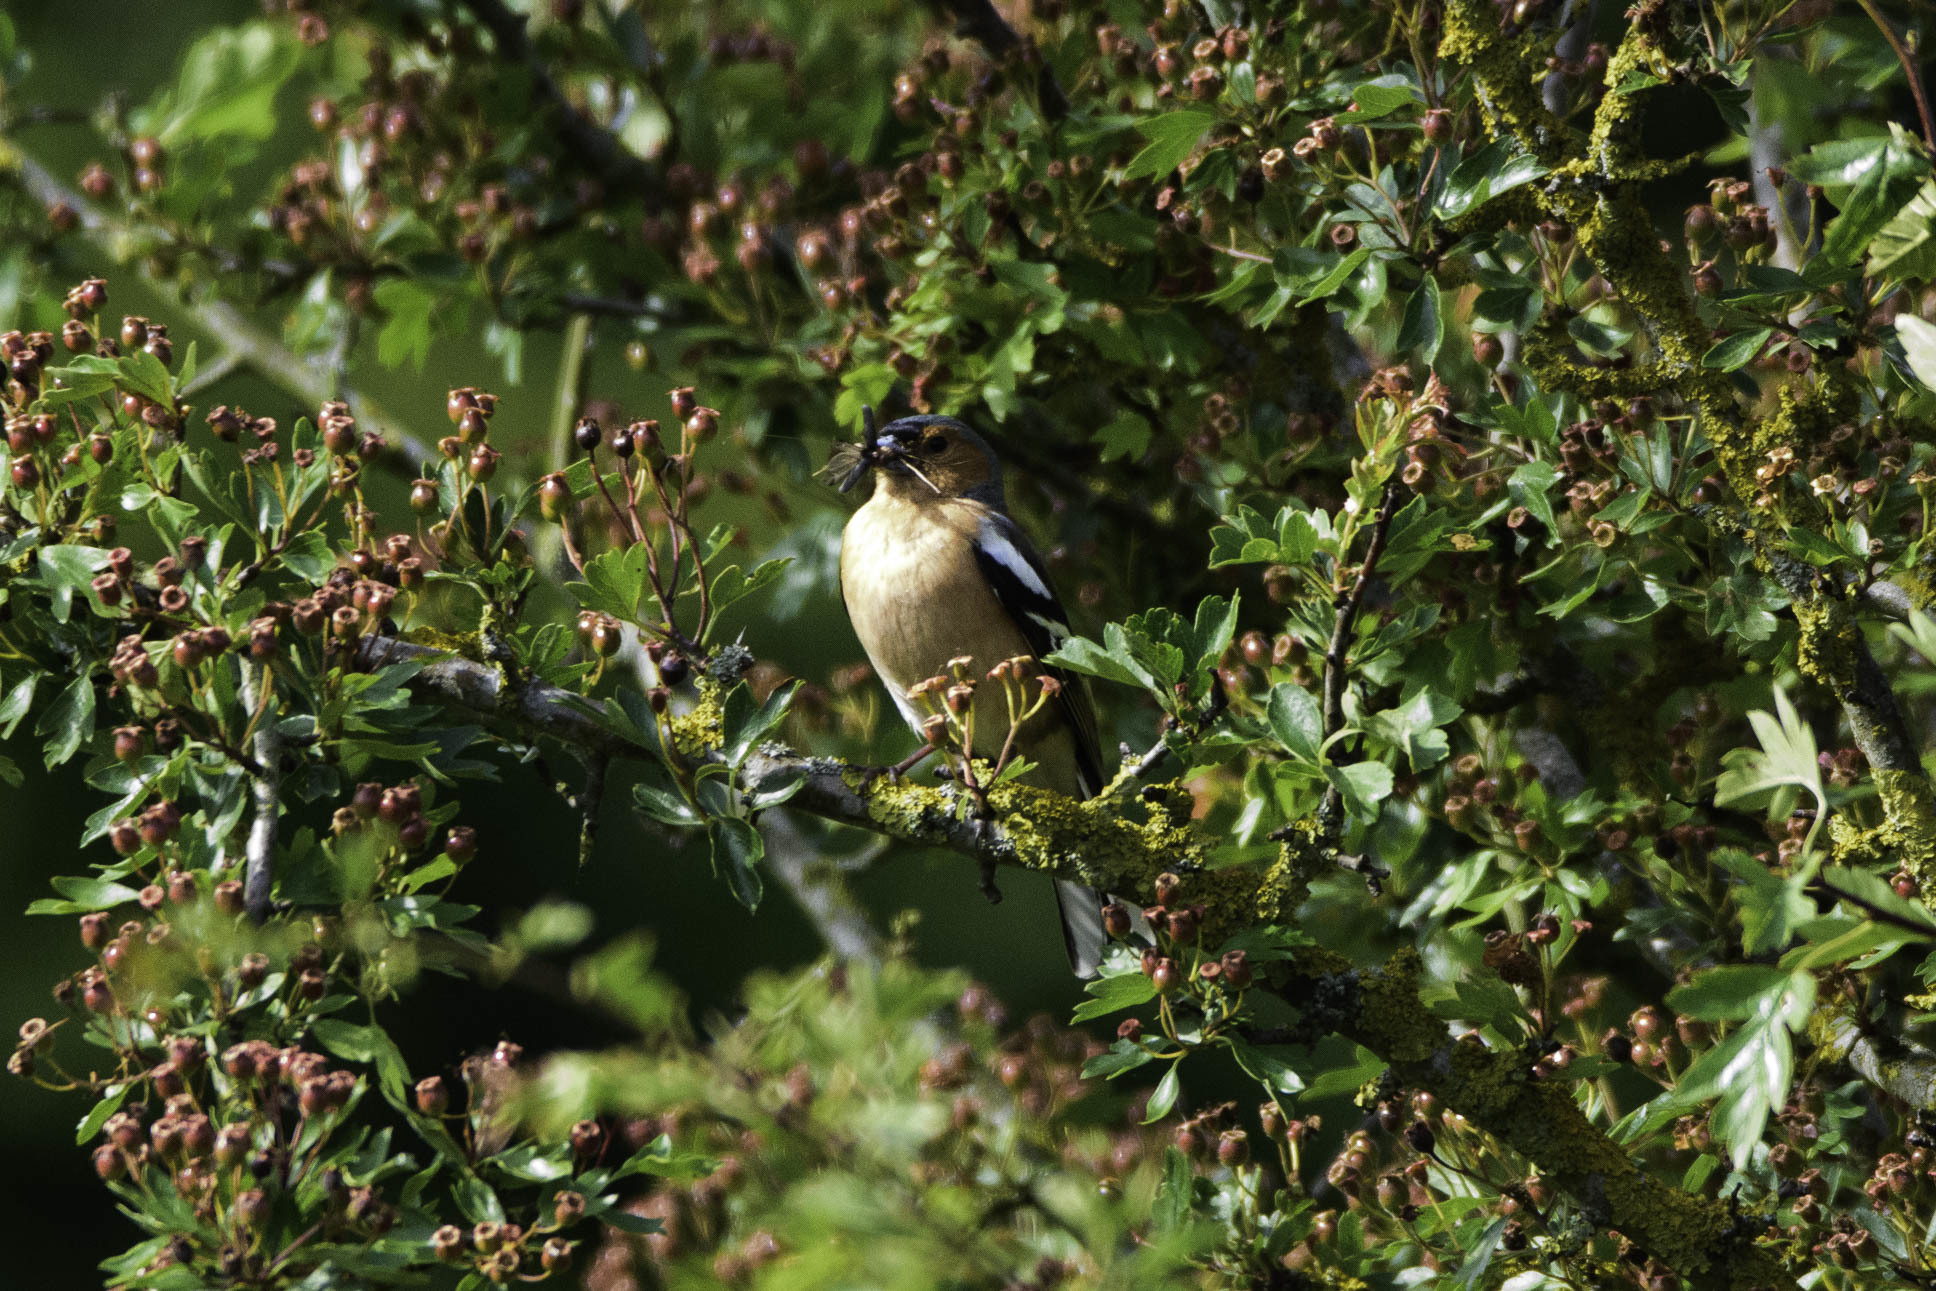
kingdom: Animalia
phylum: Chordata
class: Aves
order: Passeriformes
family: Fringillidae
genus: Fringilla
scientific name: Fringilla coelebs
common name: Common chaffinch
